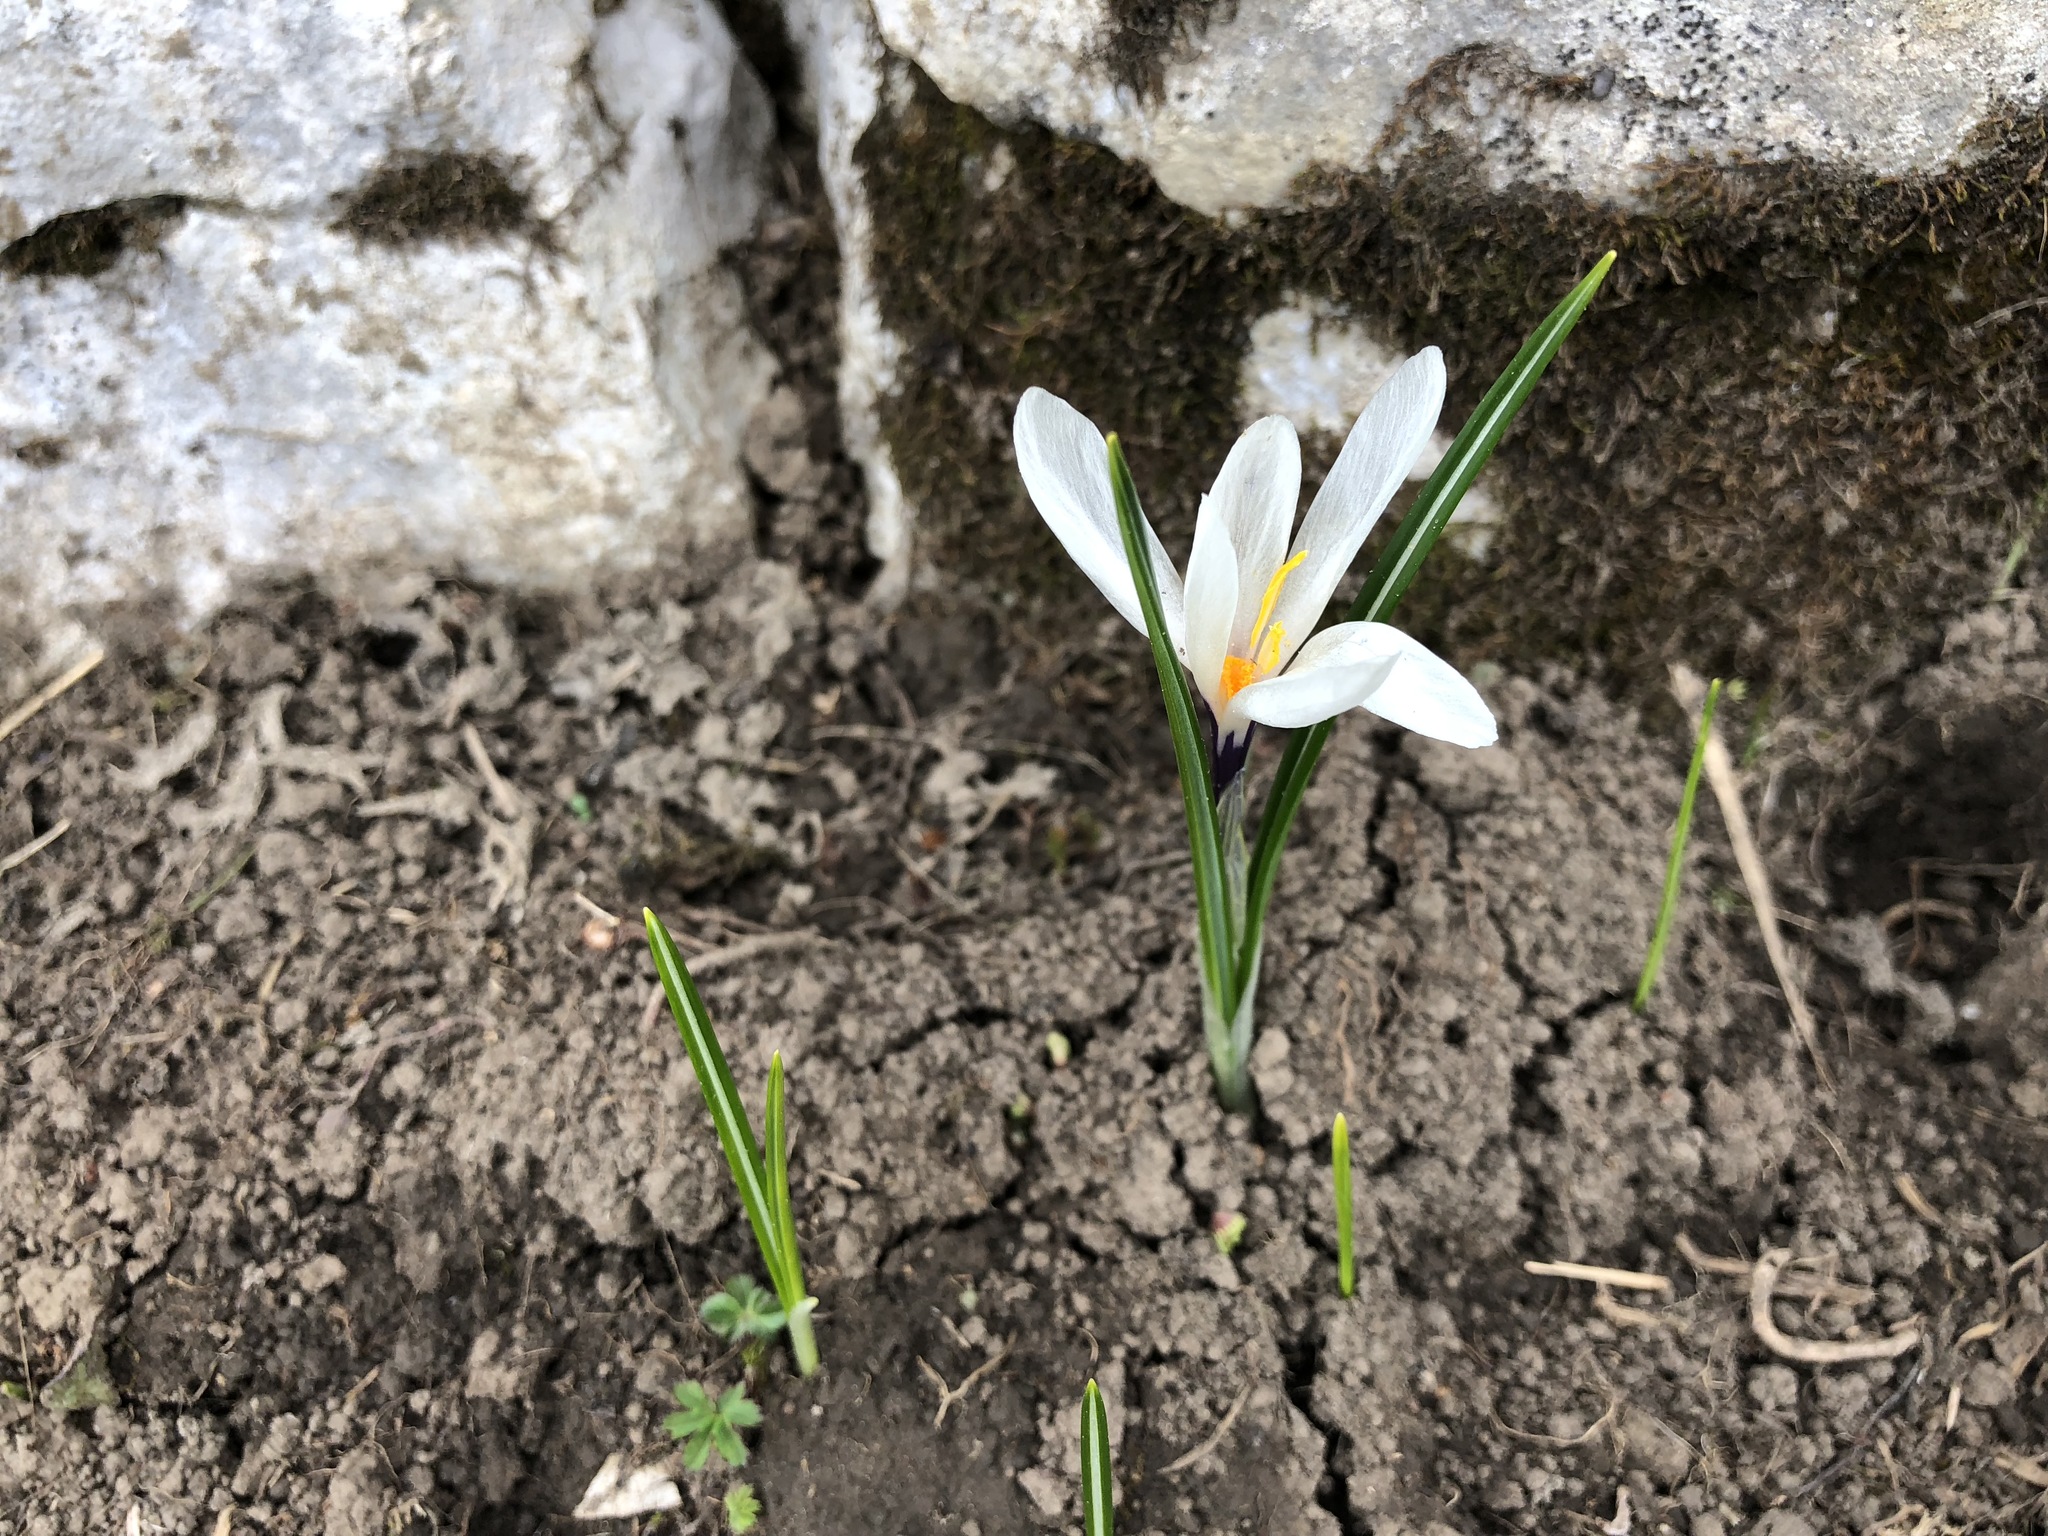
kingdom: Plantae
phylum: Tracheophyta
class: Liliopsida
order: Asparagales
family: Iridaceae
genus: Crocus
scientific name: Crocus vernus
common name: Spring crocus
